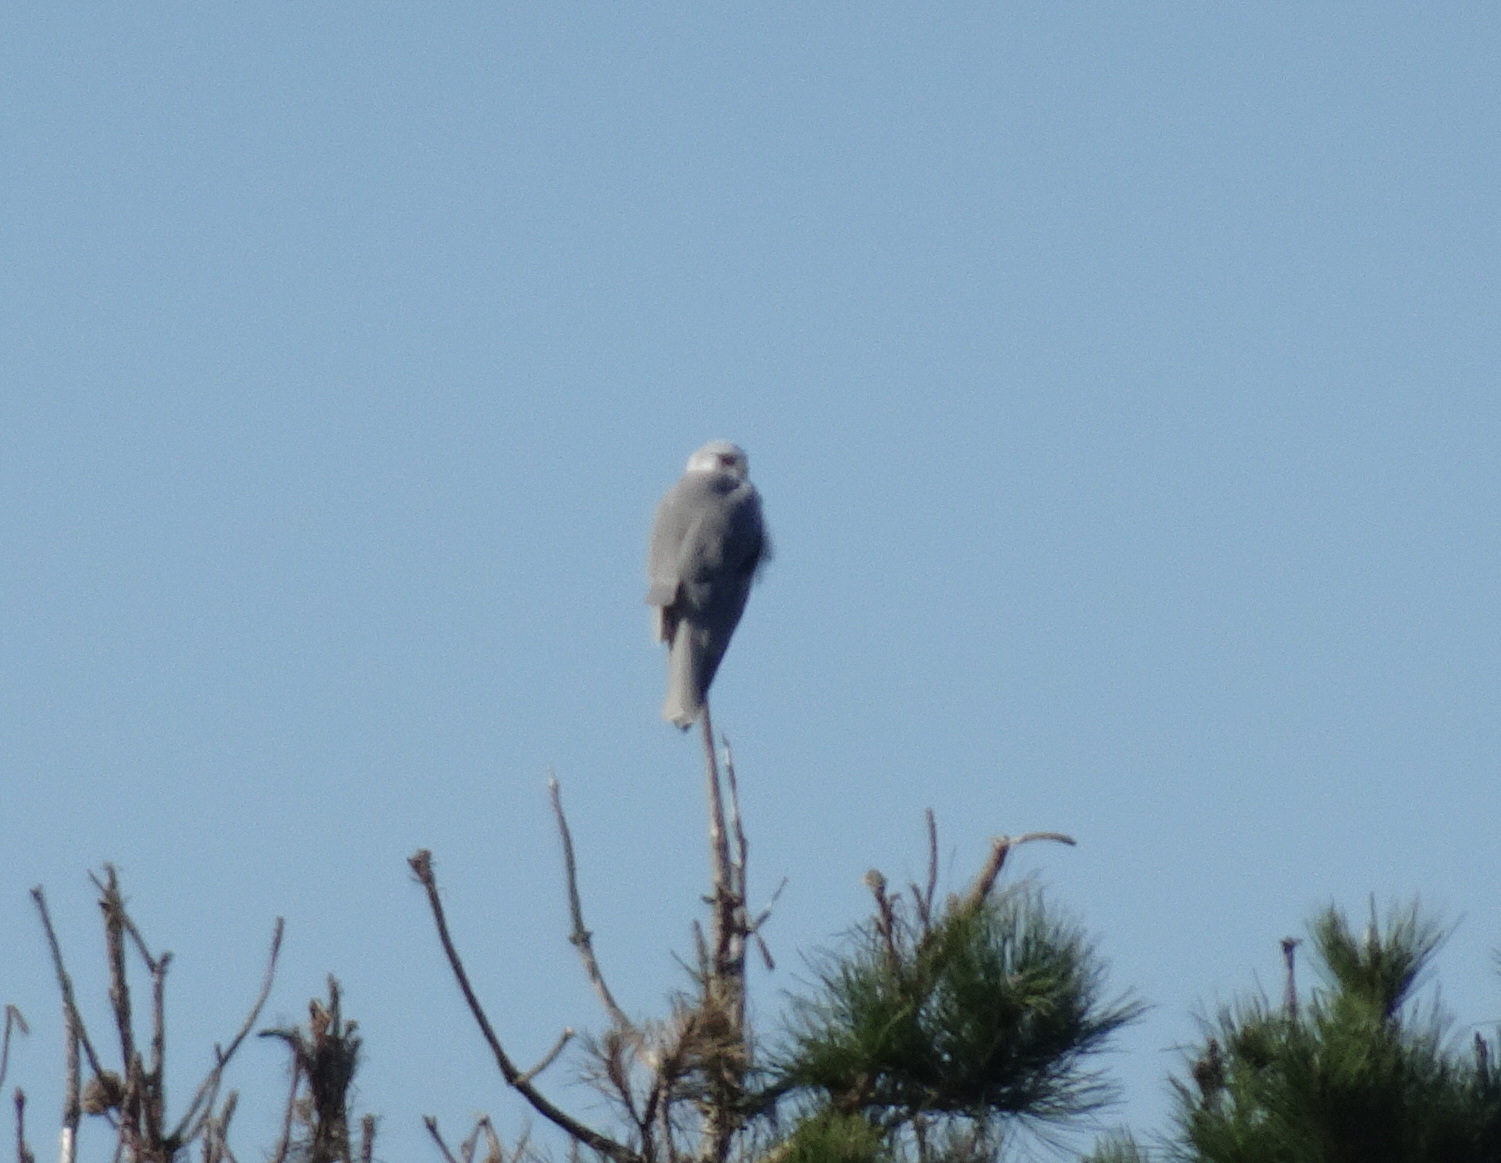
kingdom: Animalia
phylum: Chordata
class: Aves
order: Accipitriformes
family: Accipitridae
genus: Elanus
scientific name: Elanus leucurus
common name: White-tailed kite
